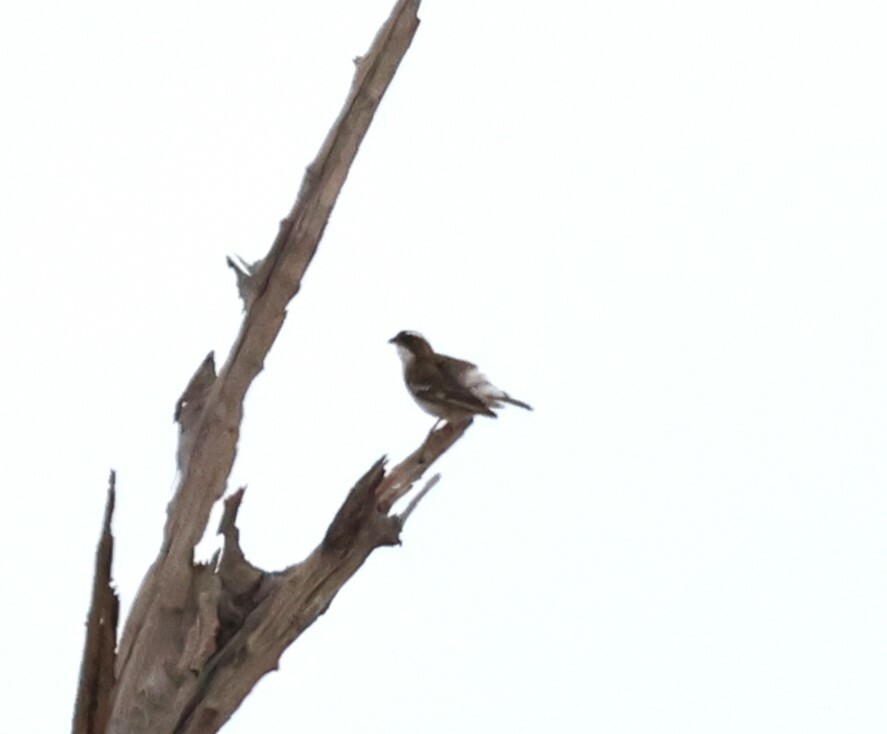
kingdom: Animalia
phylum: Chordata
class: Aves
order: Passeriformes
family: Passeridae
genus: Plocepasser
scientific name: Plocepasser mahali
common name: White-browed sparrow-weaver
